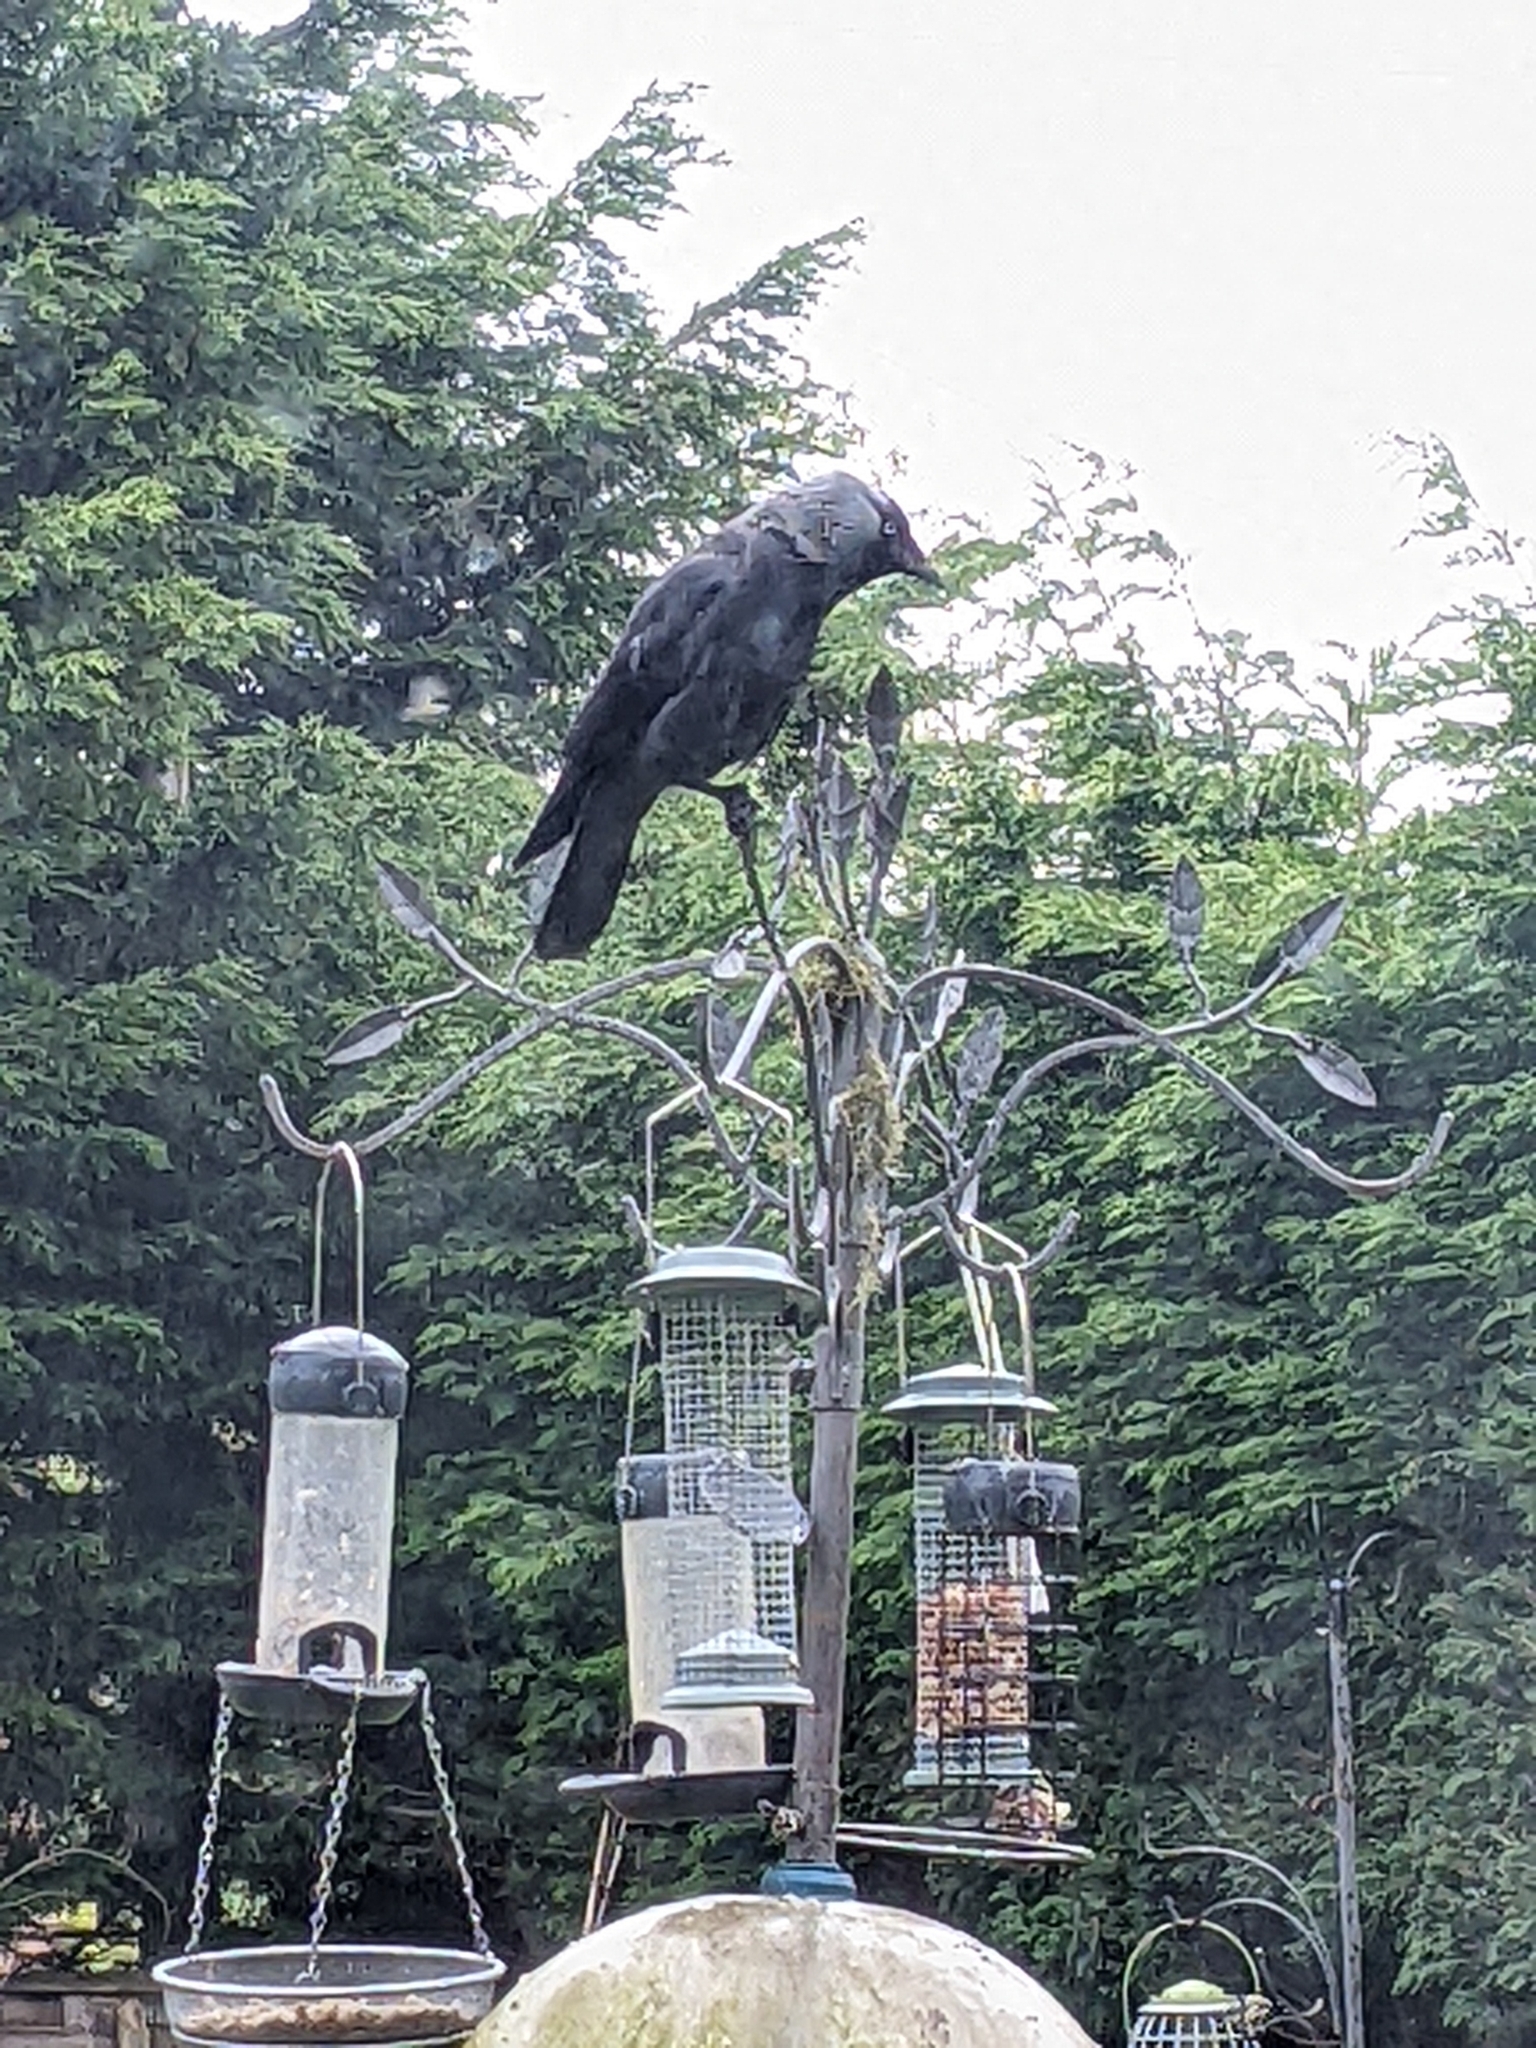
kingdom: Animalia
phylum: Chordata
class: Aves
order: Passeriformes
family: Corvidae
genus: Coloeus
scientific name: Coloeus monedula
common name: Western jackdaw
